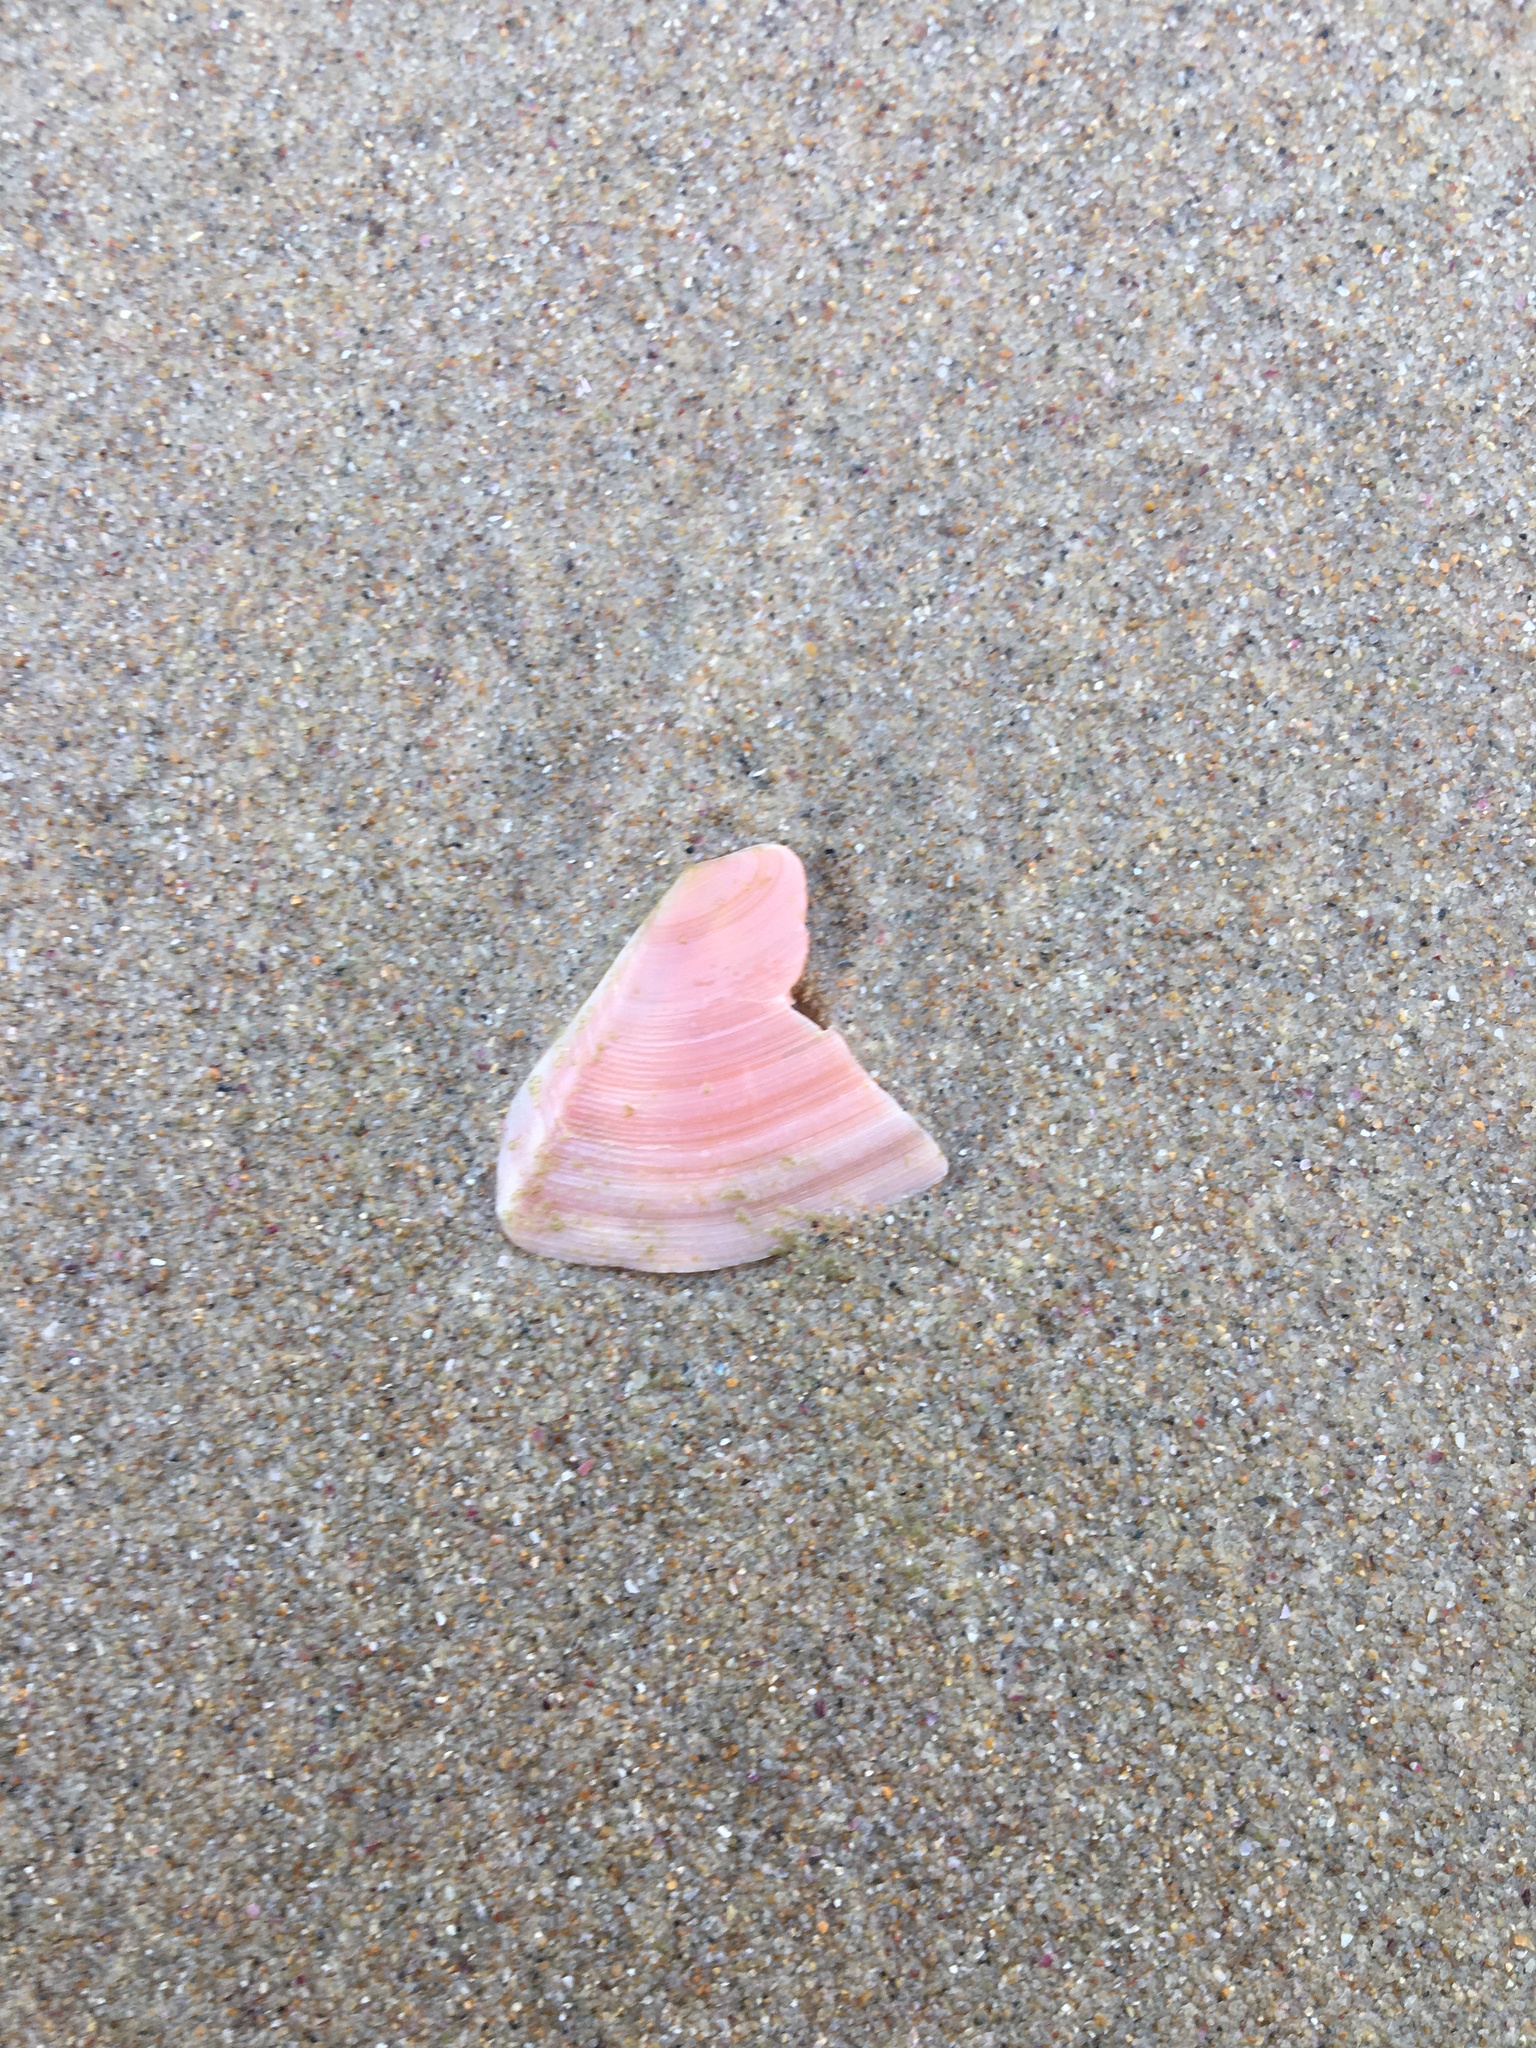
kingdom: Animalia
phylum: Mollusca
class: Bivalvia
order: Cardiida
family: Tellinidae
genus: Tellinota
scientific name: Tellinota albinella
